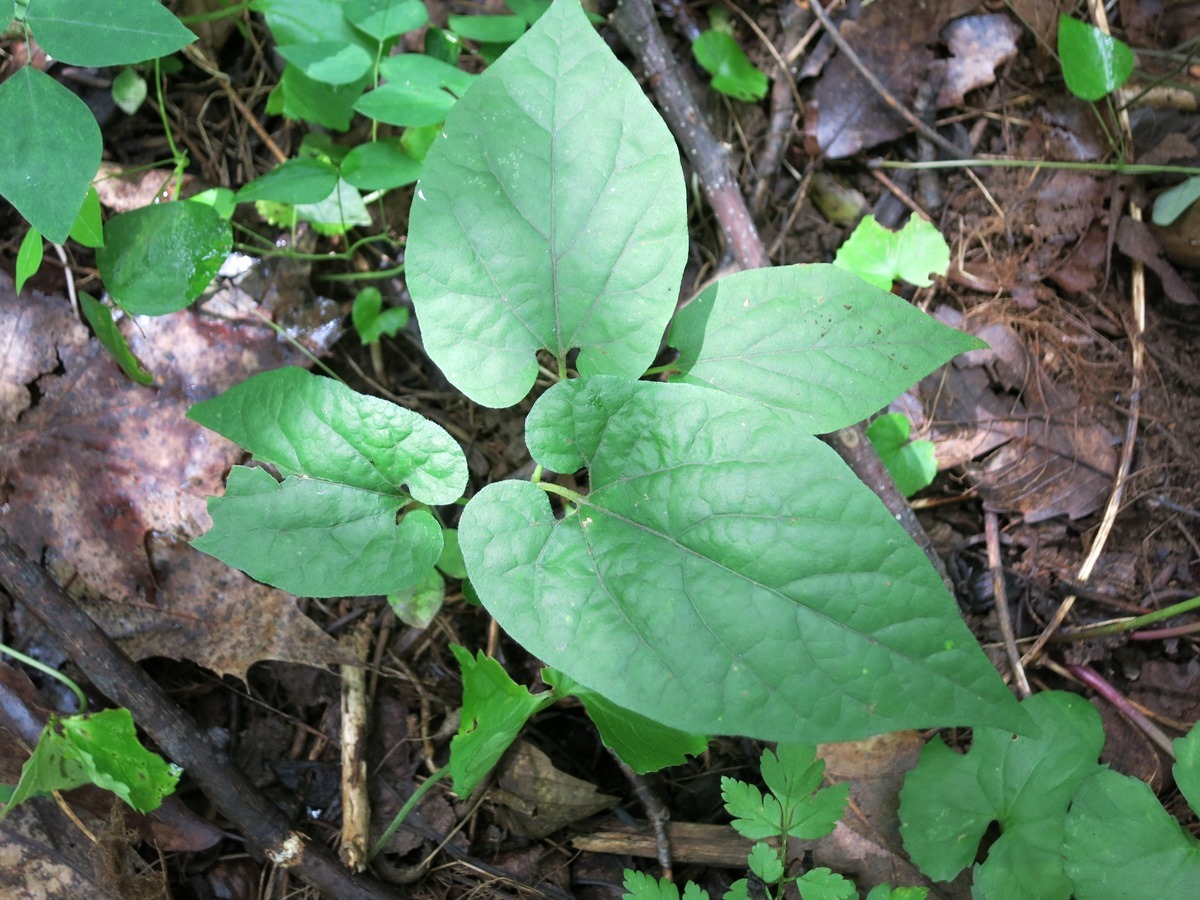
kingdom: Plantae
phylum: Tracheophyta
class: Magnoliopsida
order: Piperales
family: Aristolochiaceae
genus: Endodeca
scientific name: Endodeca serpentaria
